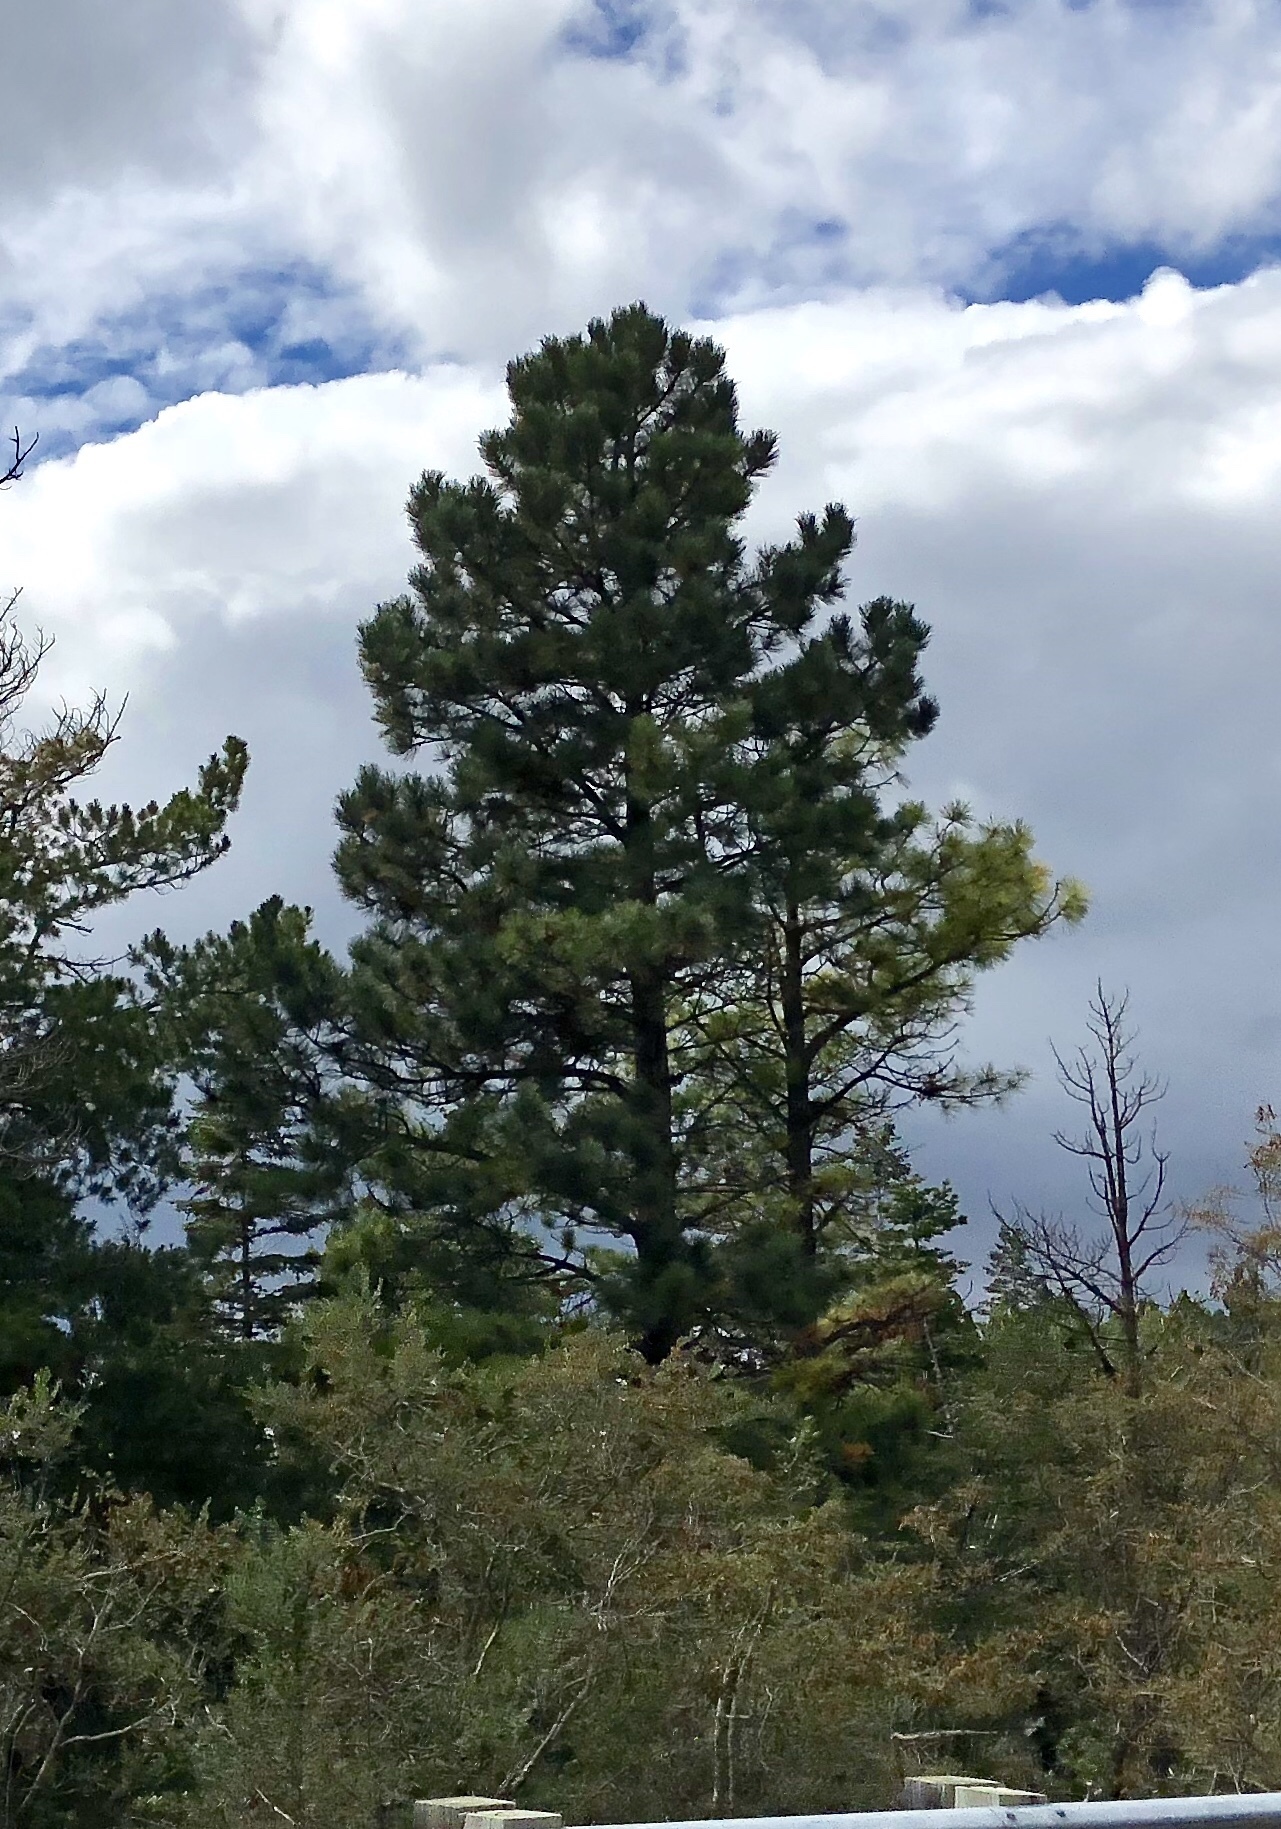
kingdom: Plantae
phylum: Tracheophyta
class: Pinopsida
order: Pinales
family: Pinaceae
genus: Pinus
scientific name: Pinus ponderosa
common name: Western yellow-pine
